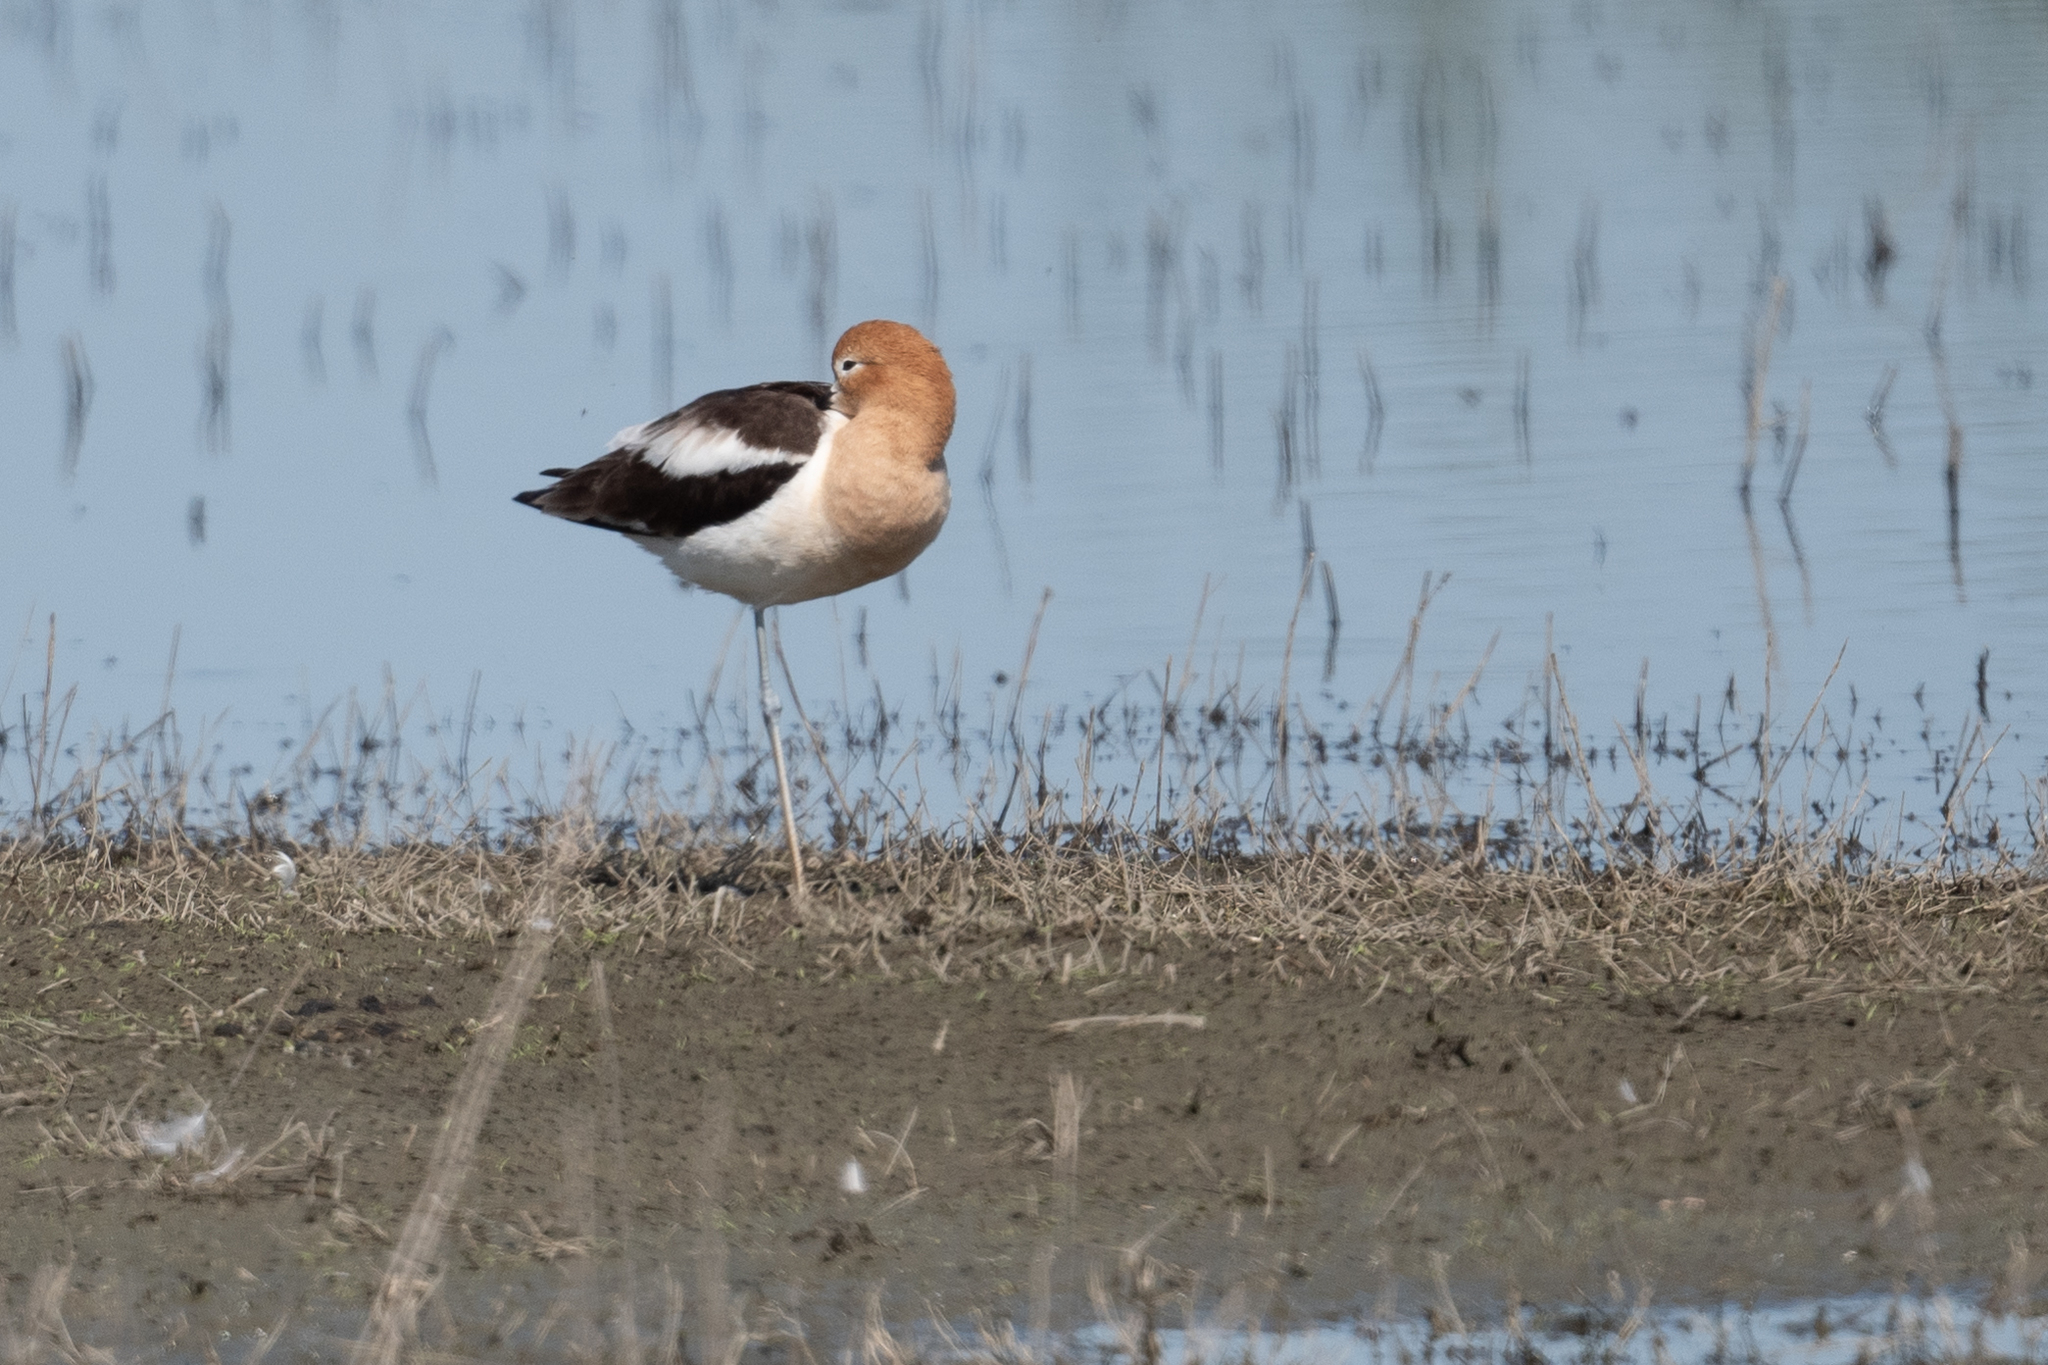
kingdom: Animalia
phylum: Chordata
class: Aves
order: Charadriiformes
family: Recurvirostridae
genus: Recurvirostra
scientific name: Recurvirostra americana
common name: American avocet
